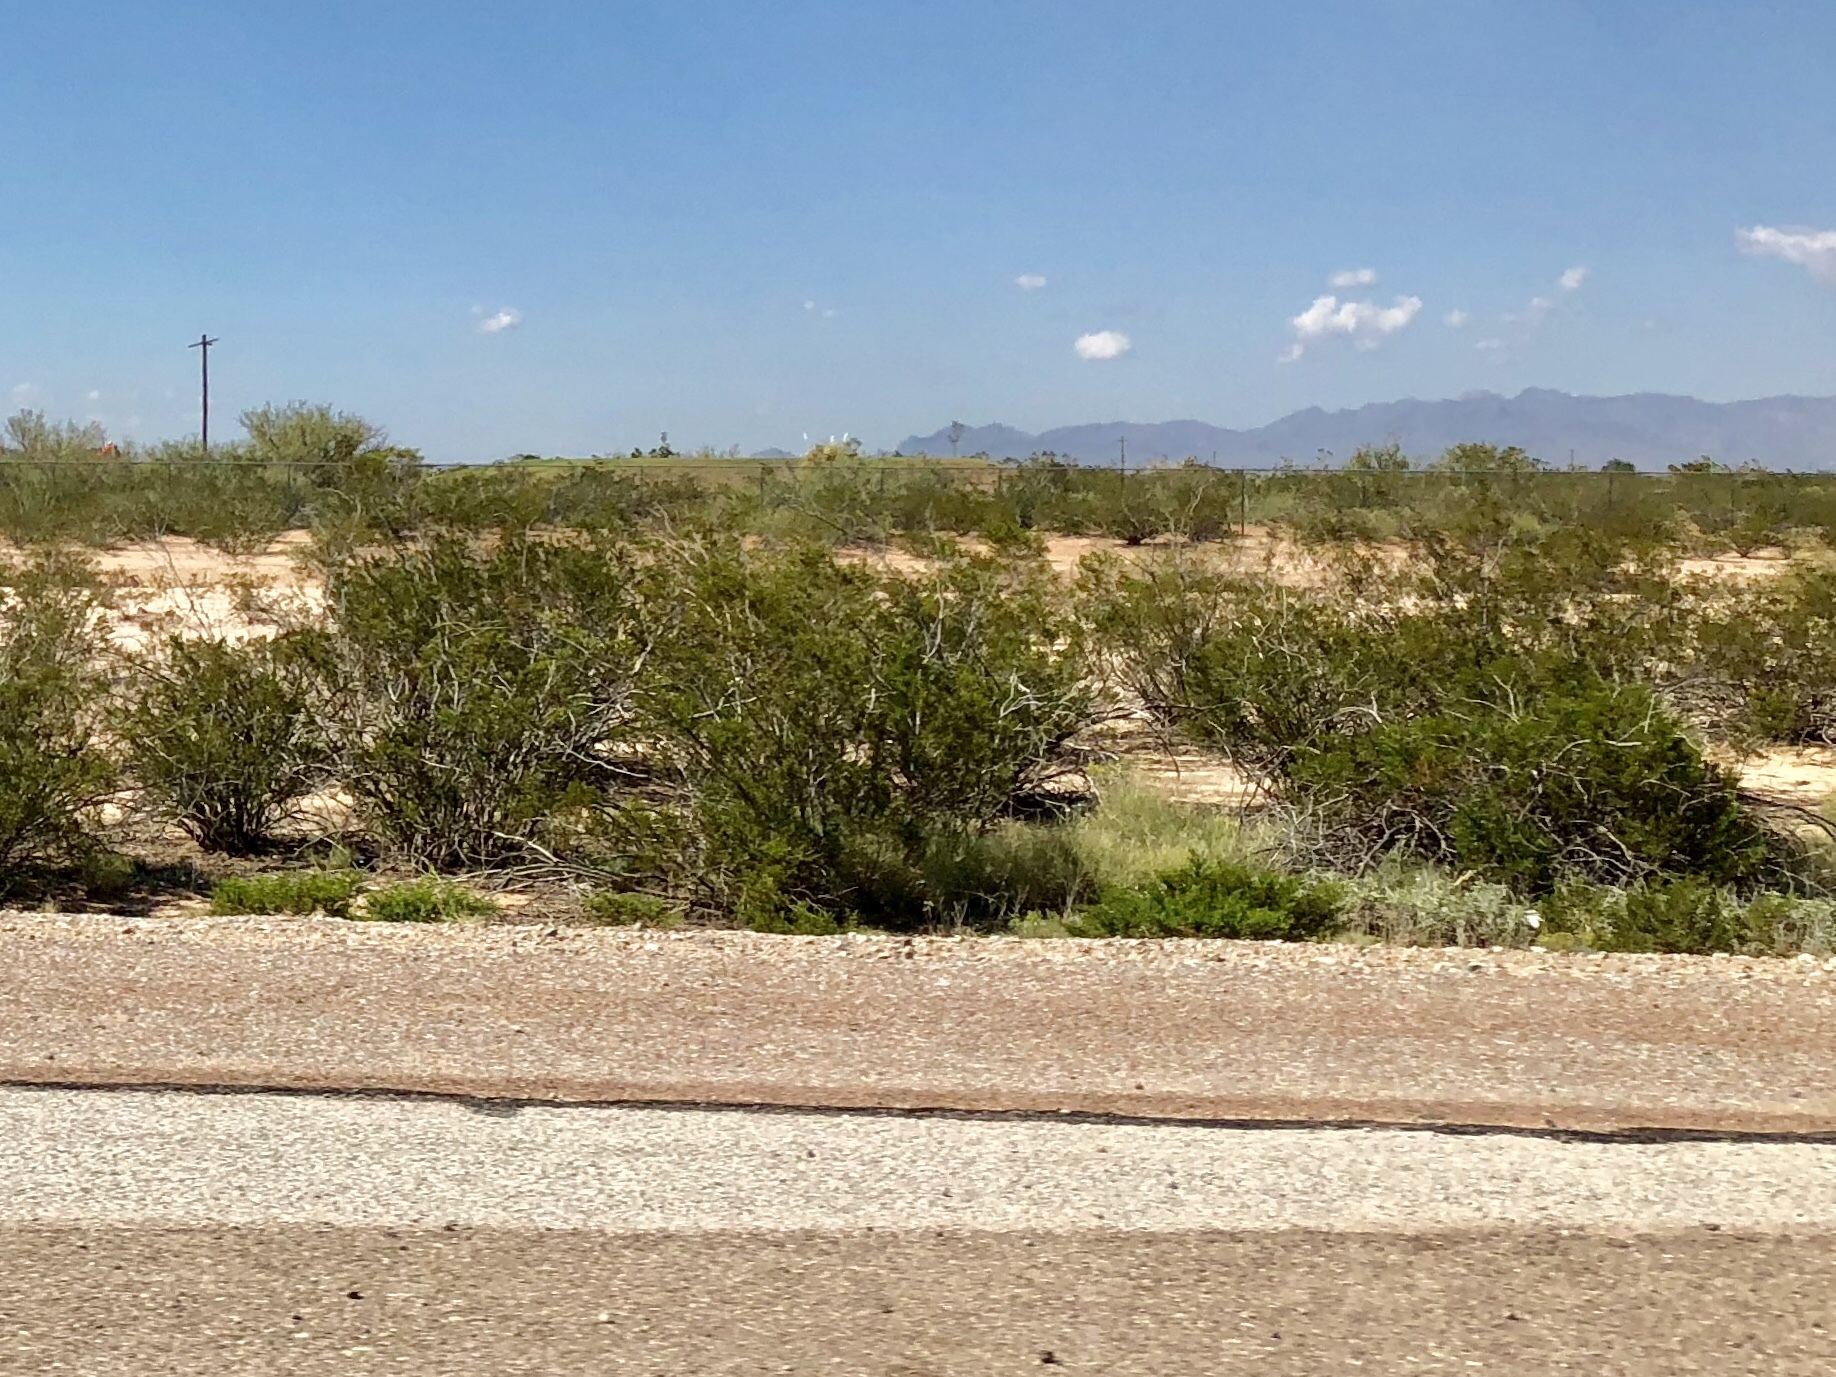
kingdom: Plantae
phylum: Tracheophyta
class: Magnoliopsida
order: Zygophyllales
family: Zygophyllaceae
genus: Larrea
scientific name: Larrea tridentata
